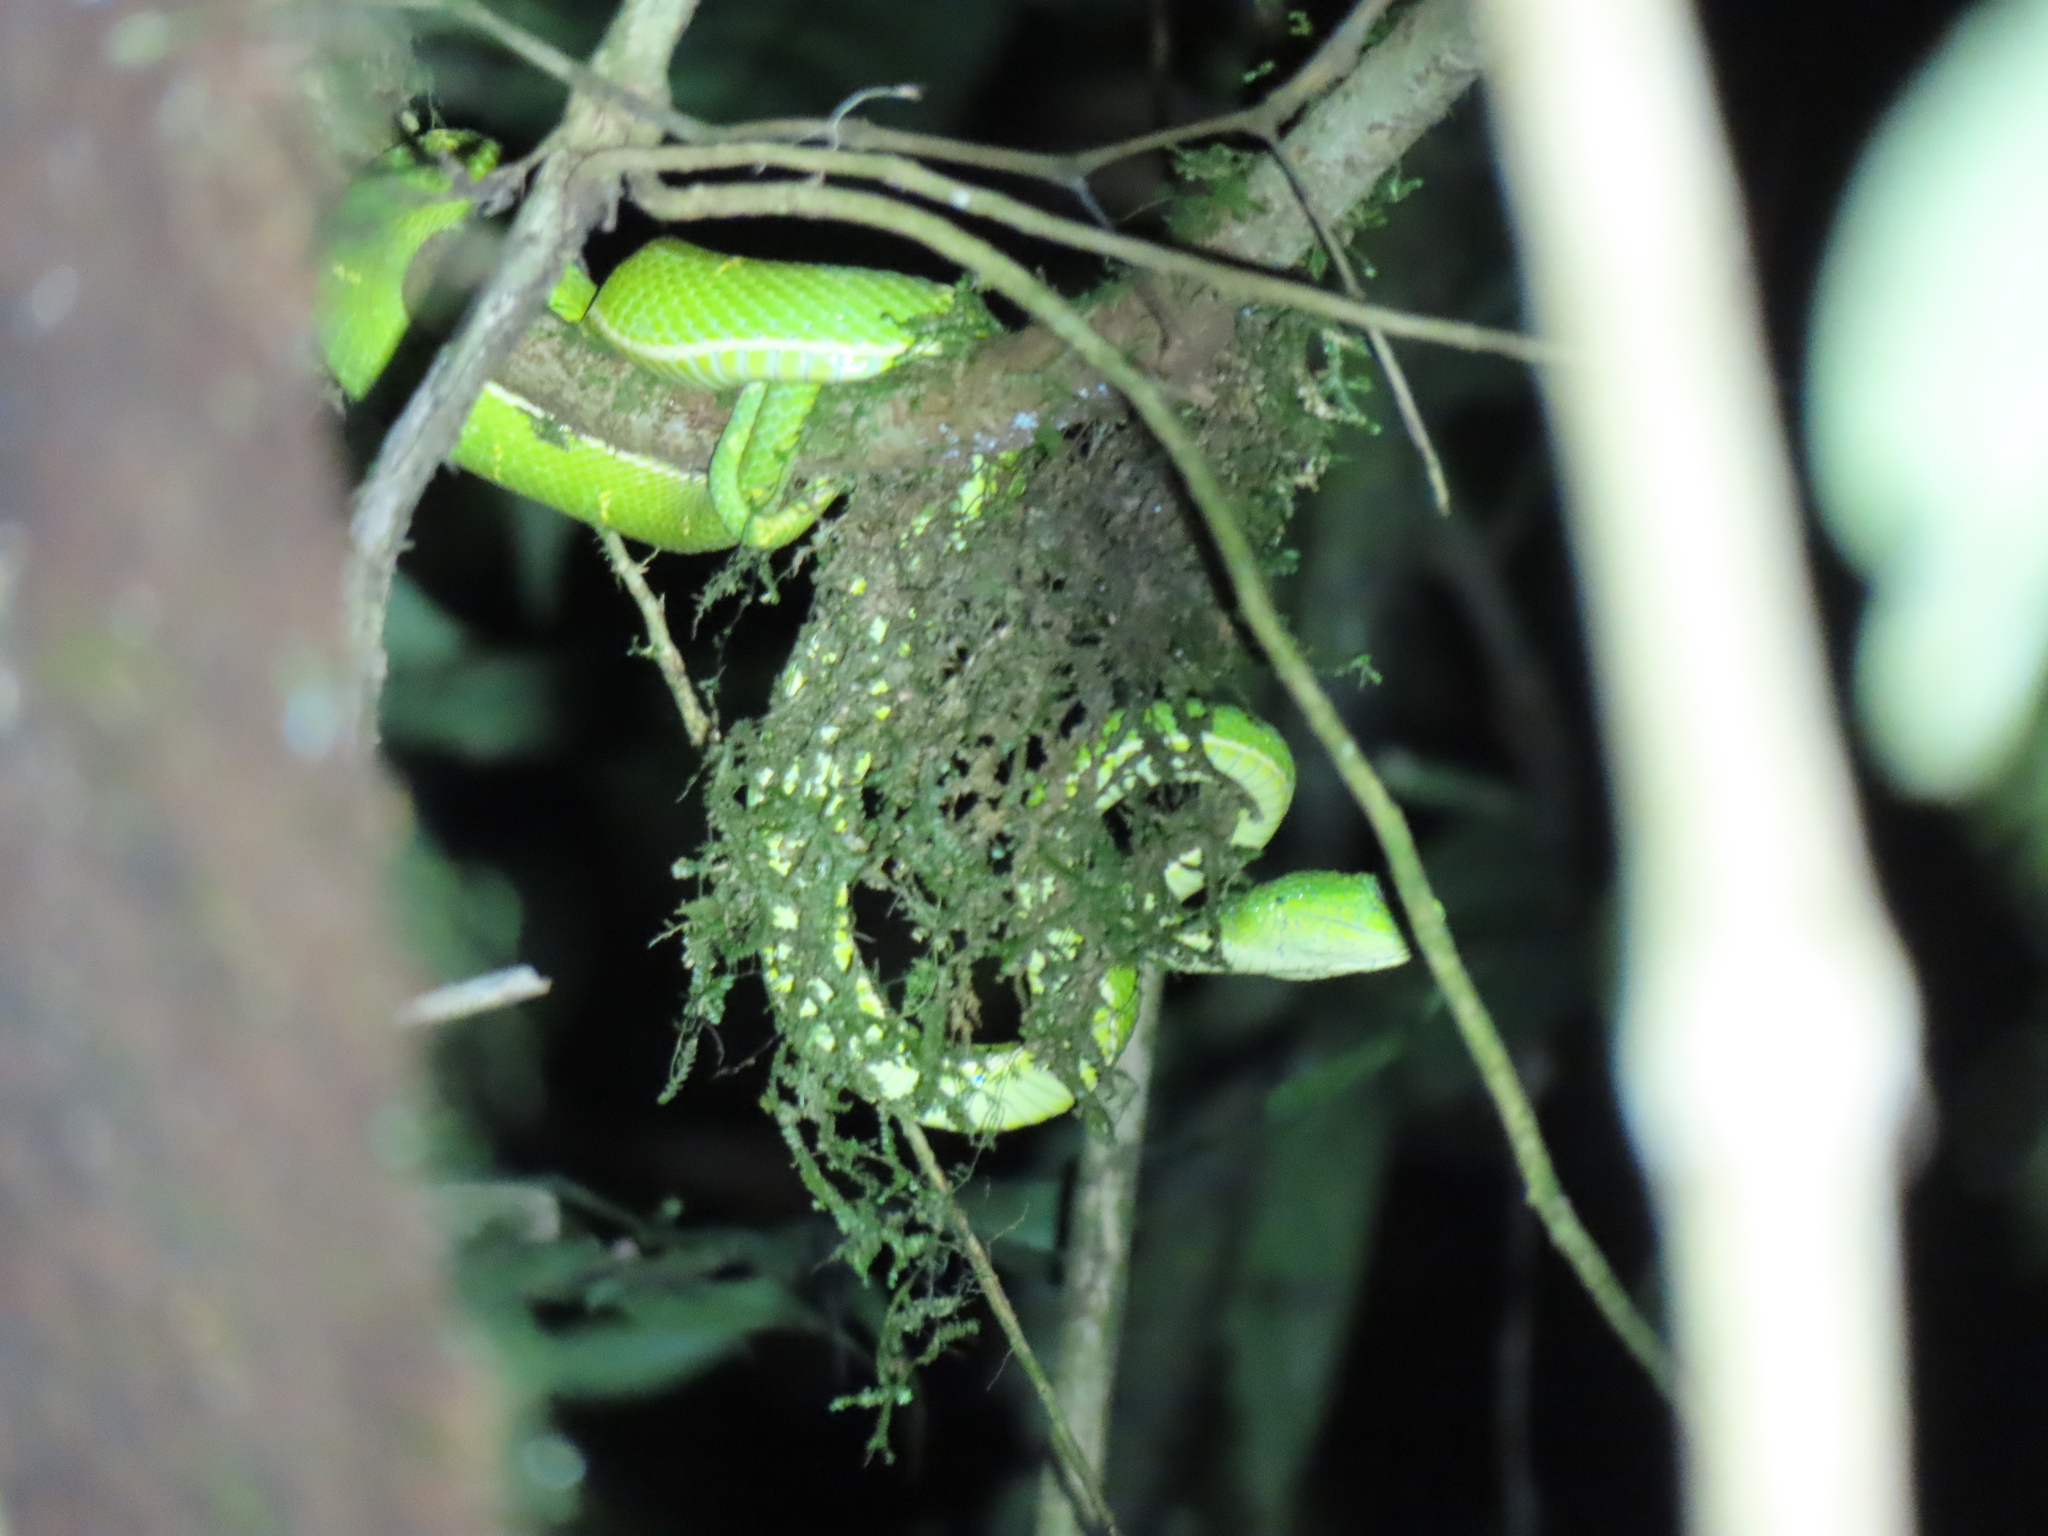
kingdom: Animalia
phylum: Chordata
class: Squamata
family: Viperidae
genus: Bothriechis
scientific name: Bothriechis lateralis
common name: Coffee palm viper
